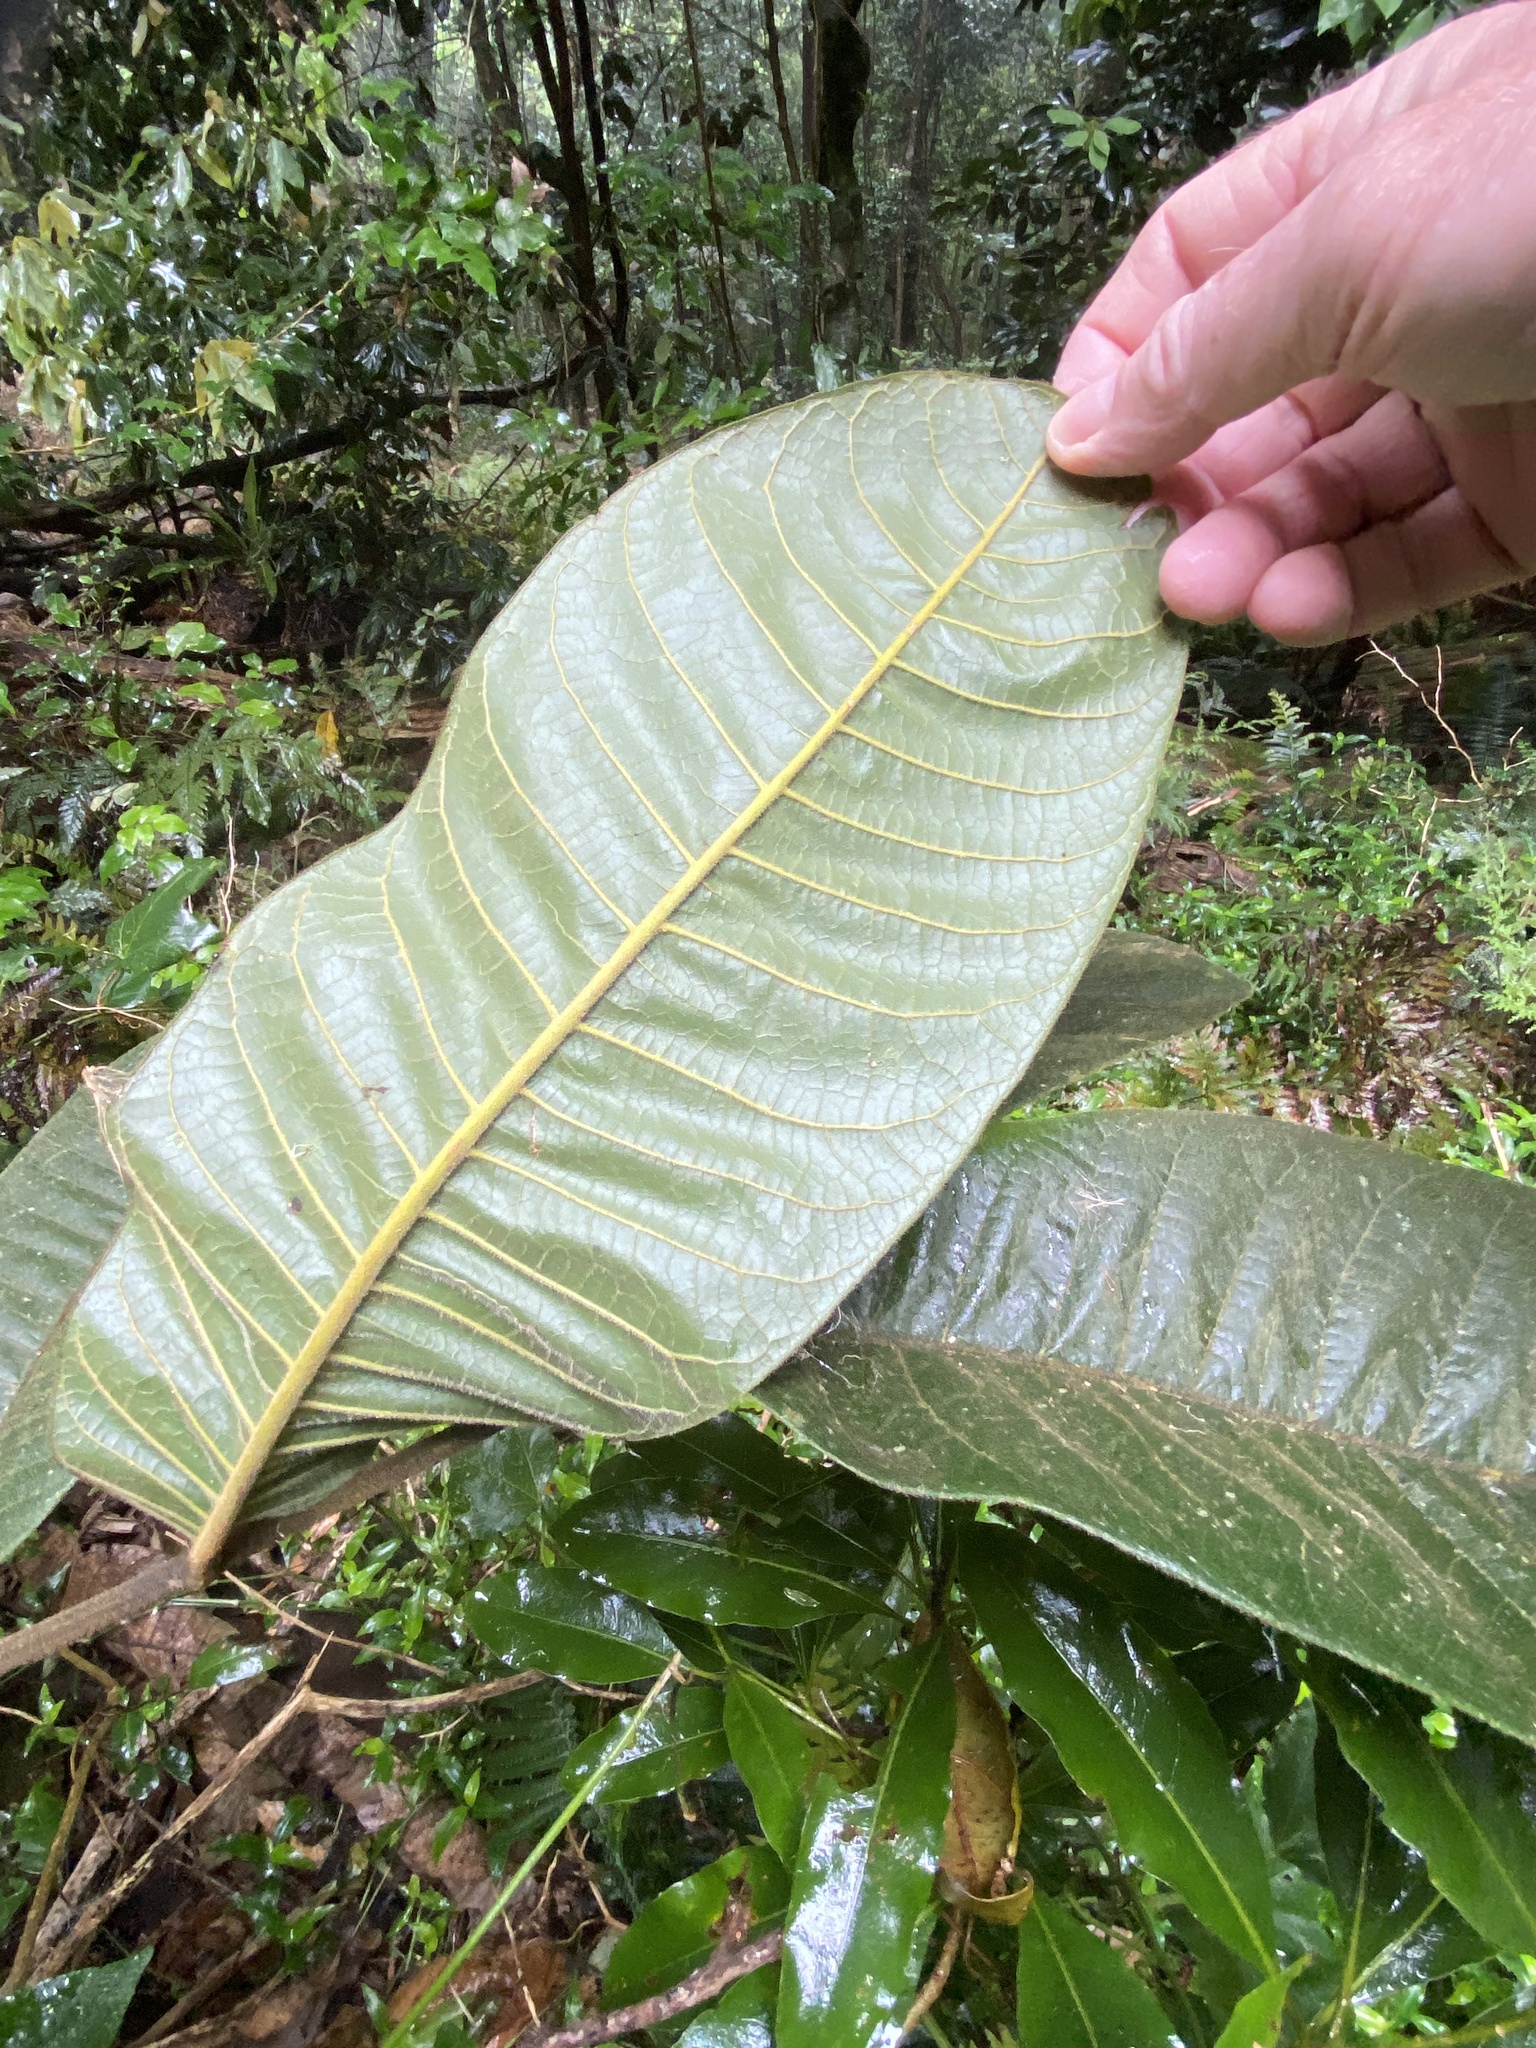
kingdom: Plantae
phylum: Tracheophyta
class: Magnoliopsida
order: Sapindales
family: Sapindaceae
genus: Diploglottis
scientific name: Diploglottis australis
